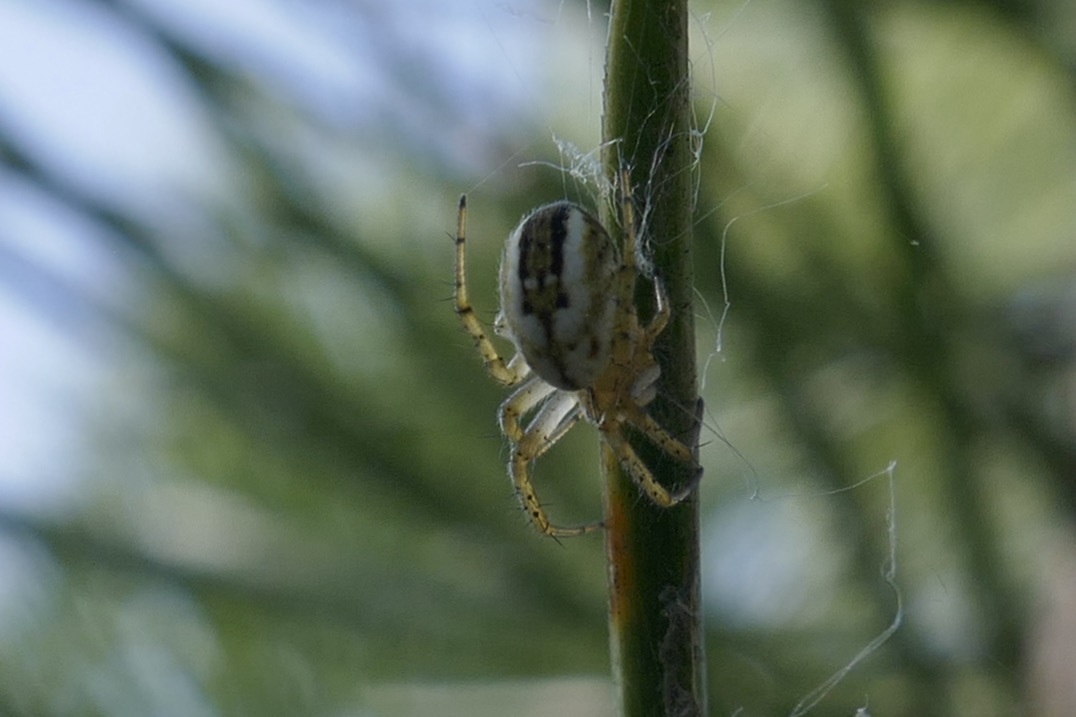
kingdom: Animalia
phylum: Arthropoda
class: Arachnida
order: Araneae
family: Araneidae
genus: Mangora
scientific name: Mangora acalypha
